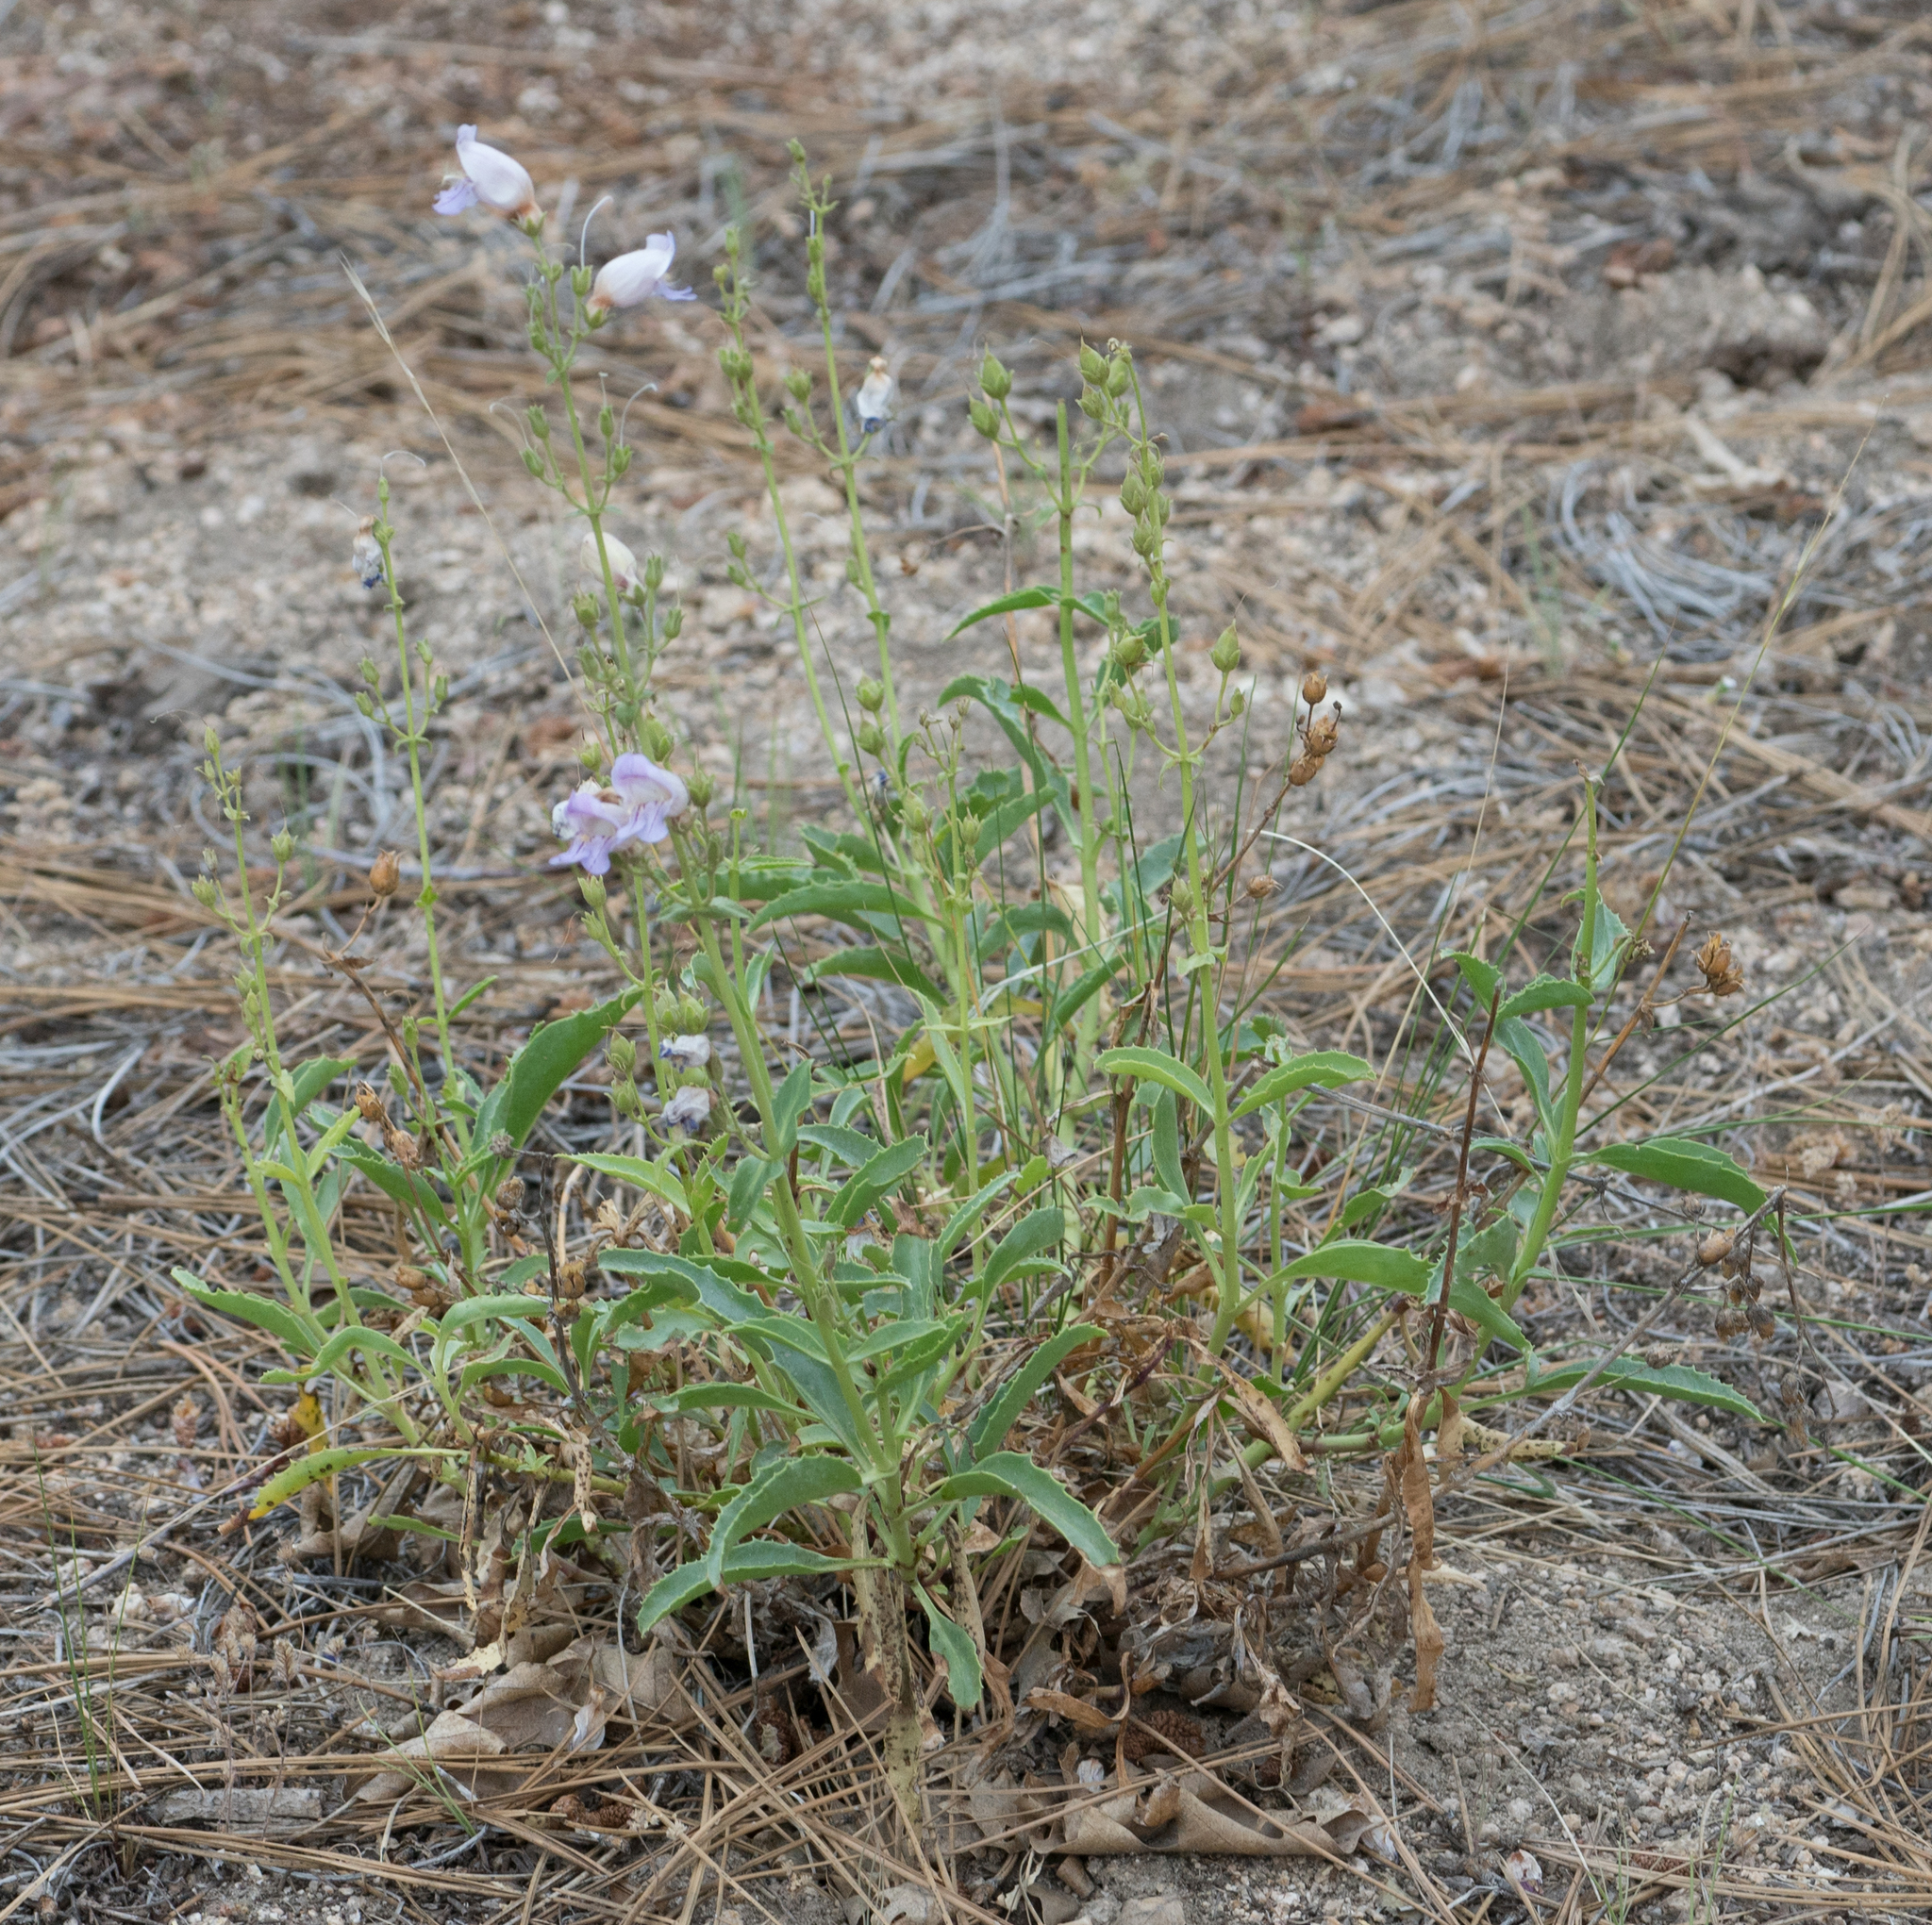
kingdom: Plantae
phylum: Tracheophyta
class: Magnoliopsida
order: Lamiales
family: Plantaginaceae
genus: Penstemon
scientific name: Penstemon grinnellii
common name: Grinnell's beardtongue
